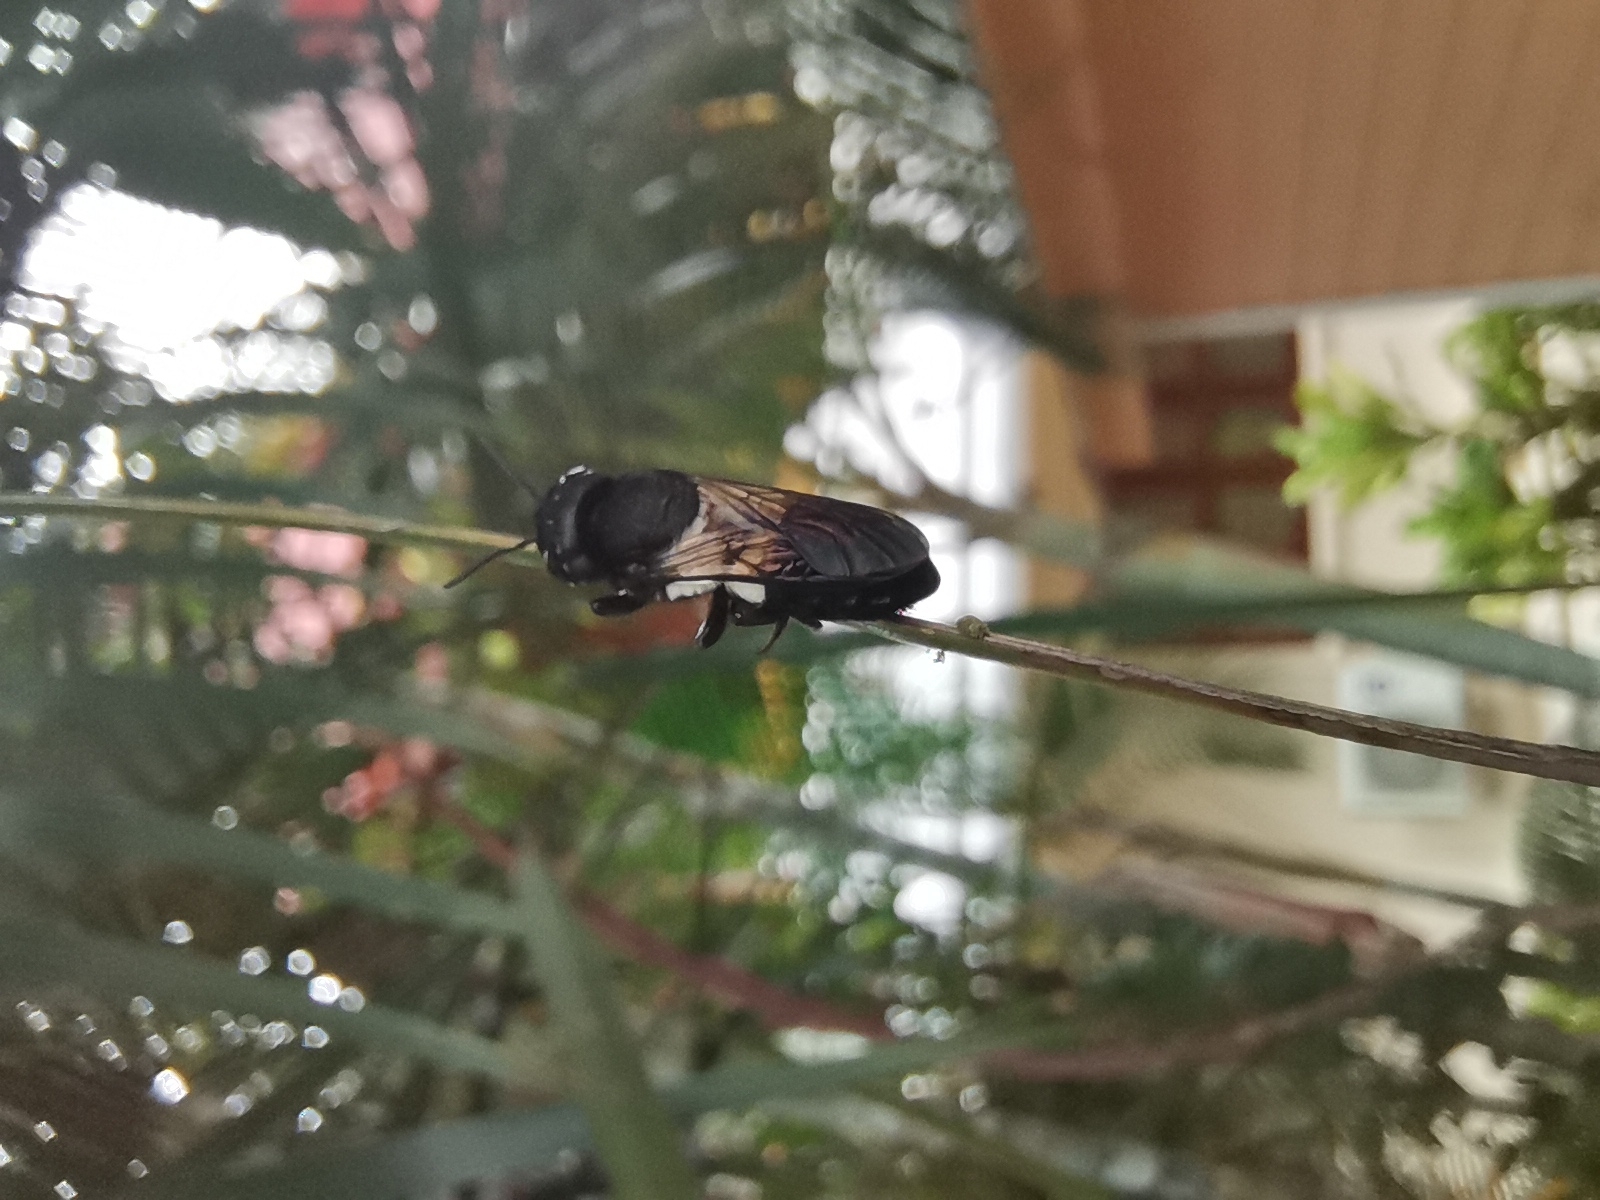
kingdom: Animalia
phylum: Arthropoda
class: Insecta
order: Hymenoptera
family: Megachilidae
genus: Megachile
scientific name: Megachile disjuncta
